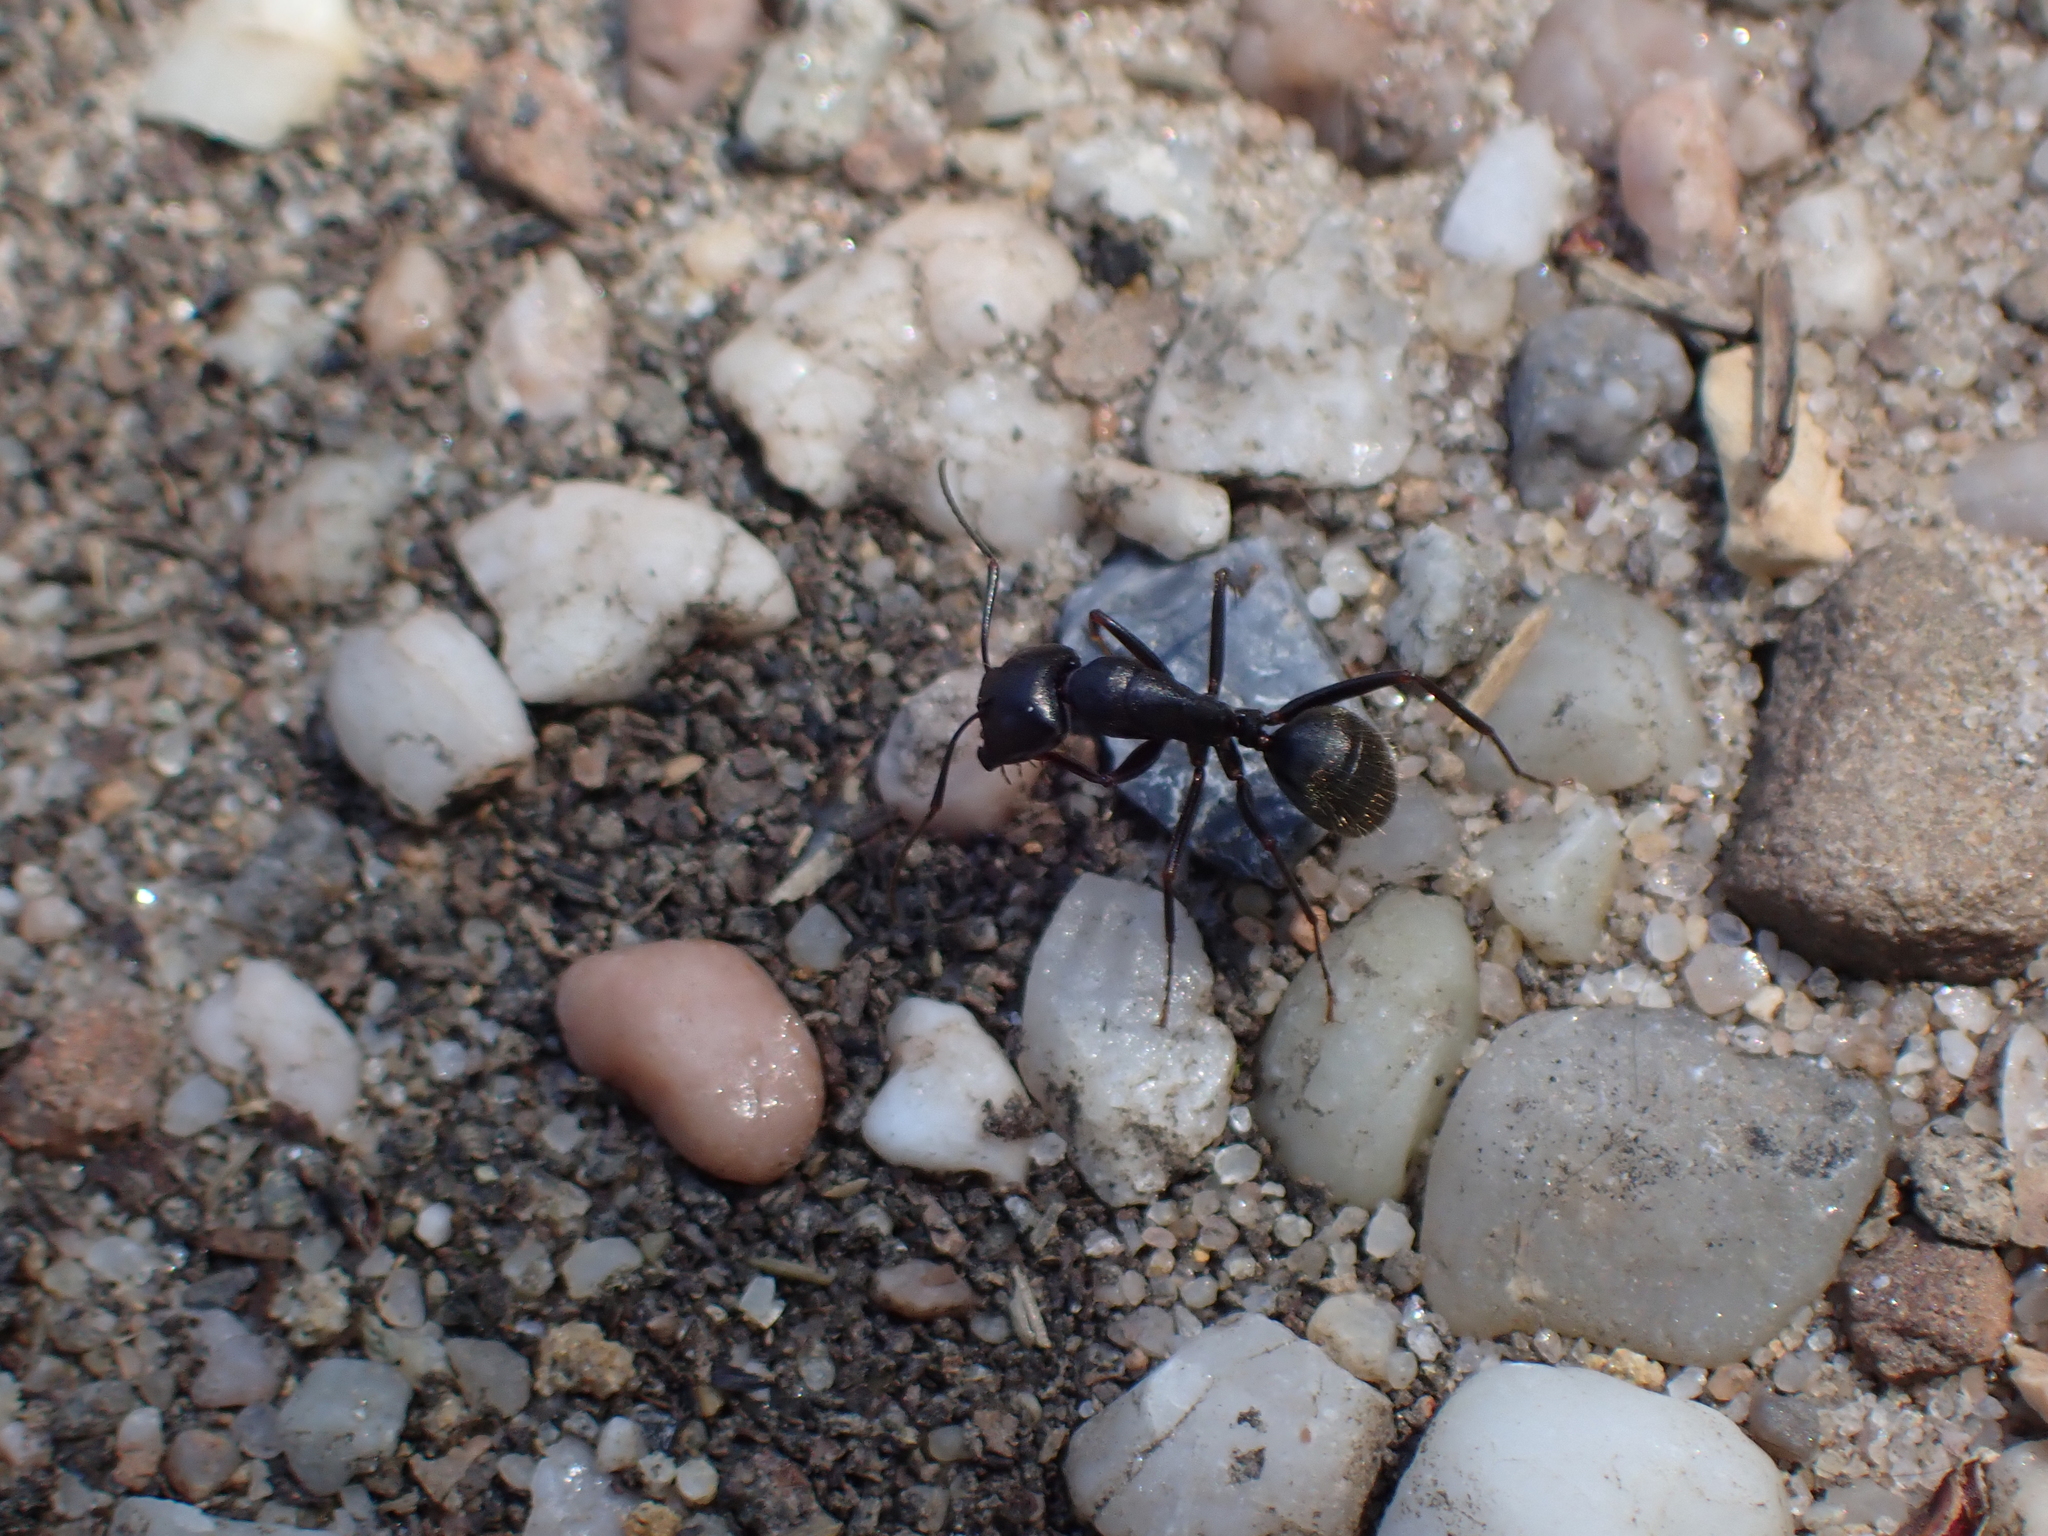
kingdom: Animalia
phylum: Arthropoda
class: Insecta
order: Hymenoptera
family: Formicidae
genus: Camponotus
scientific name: Camponotus pennsylvanicus
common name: Black carpenter ant
